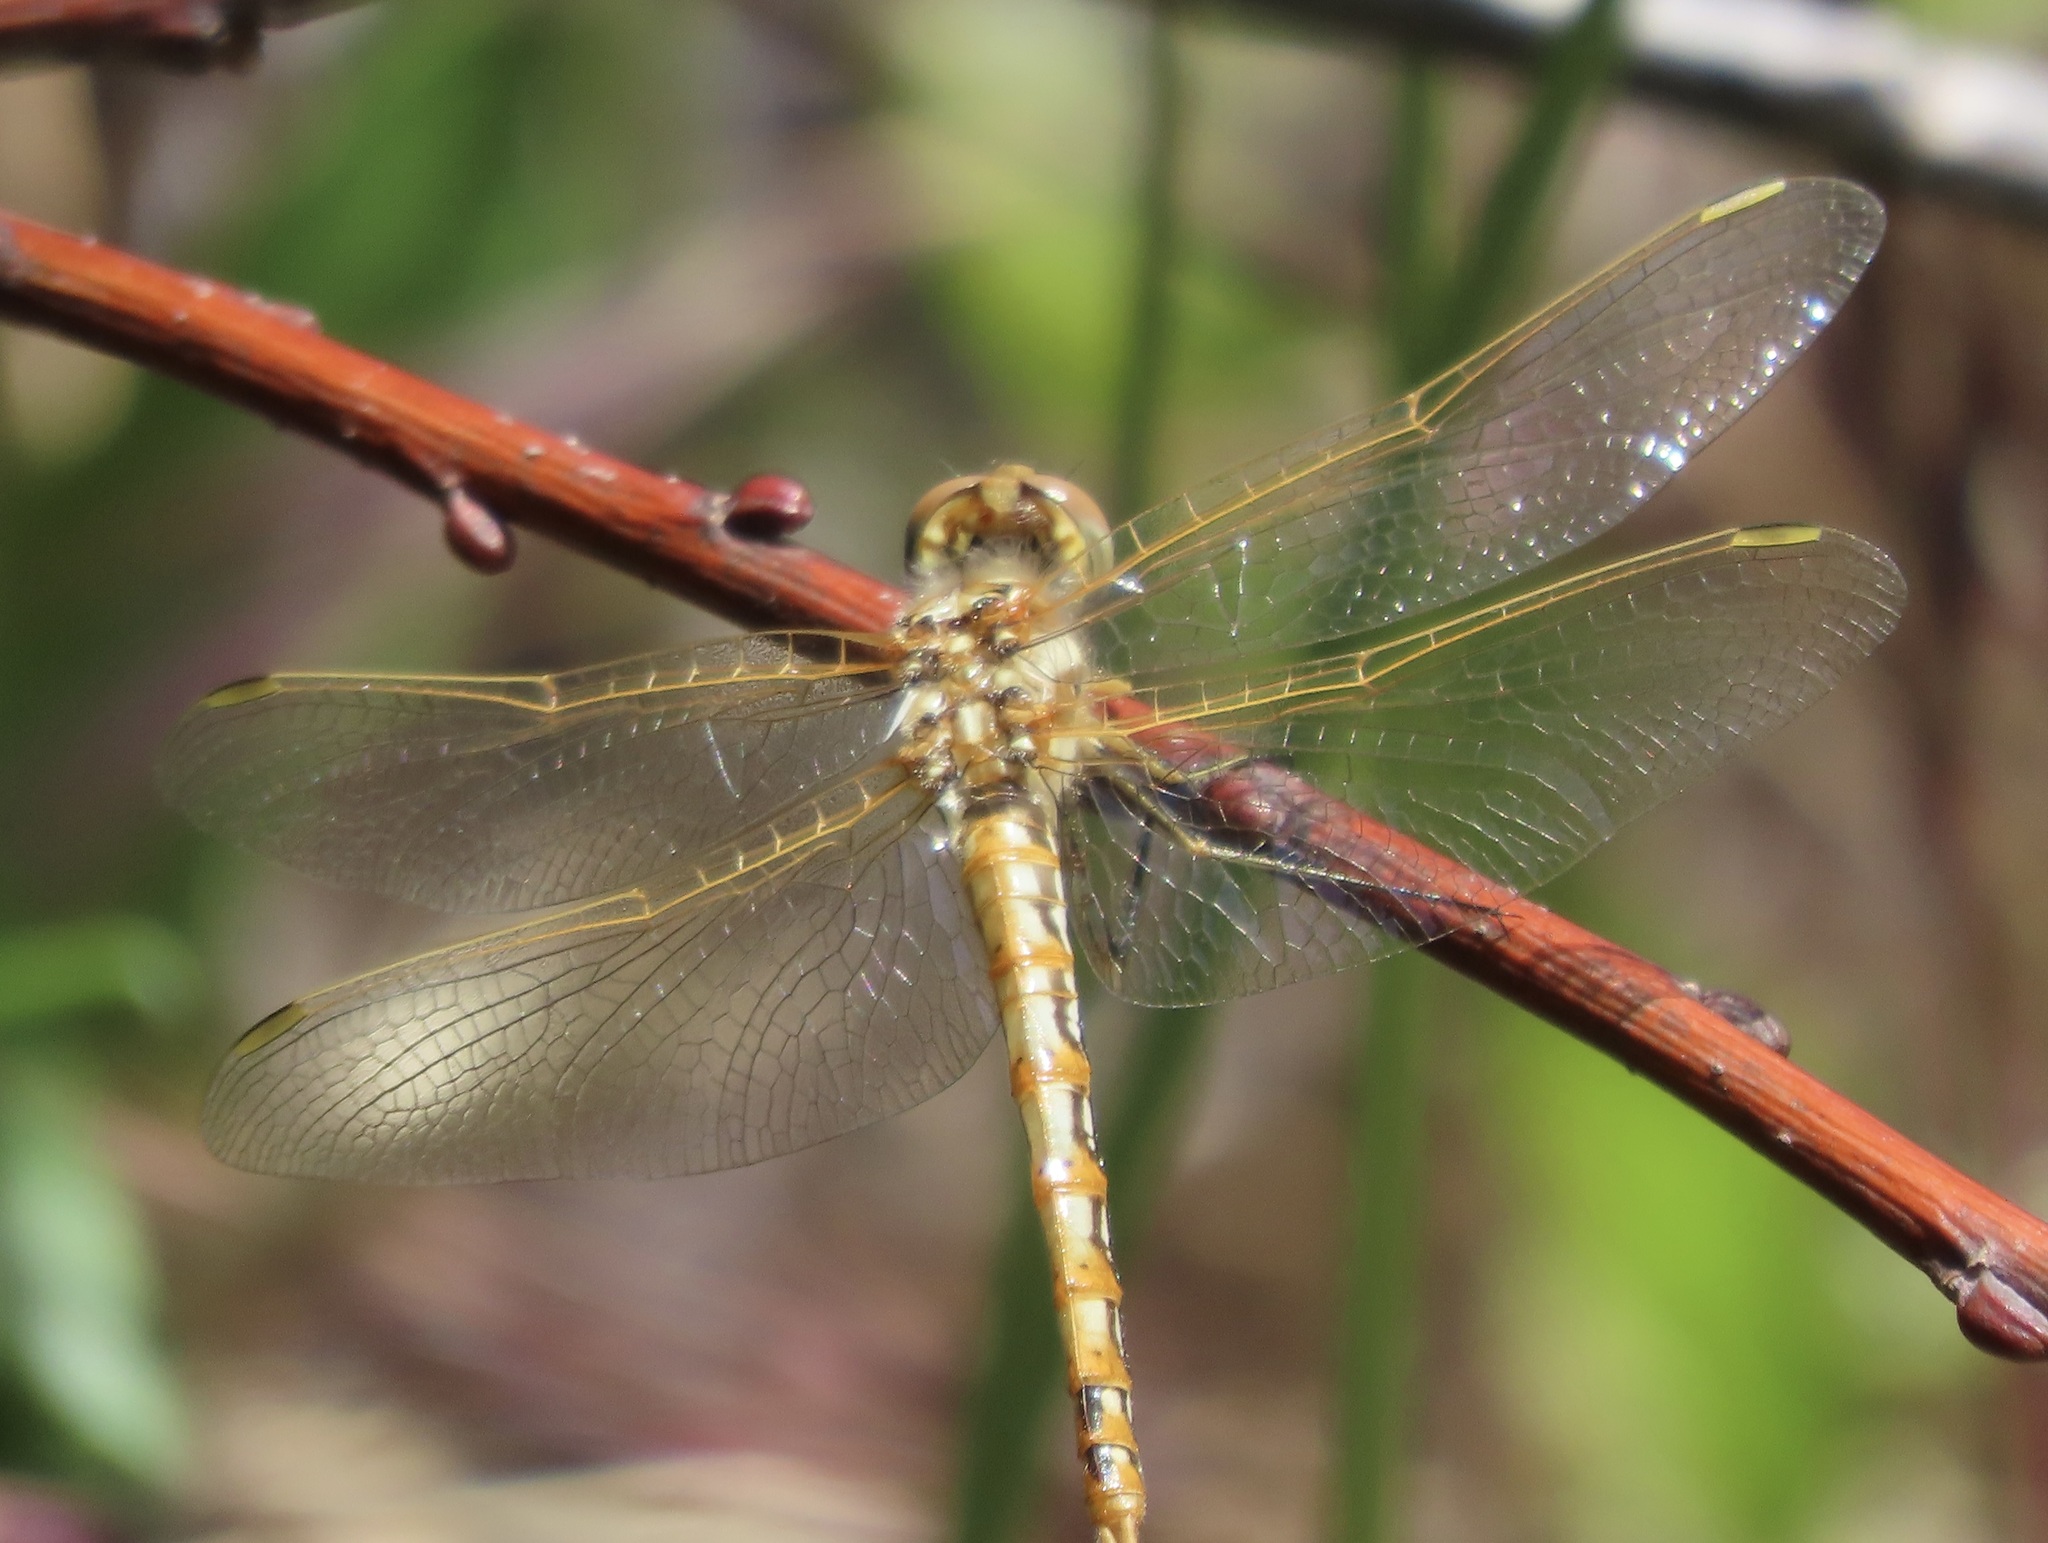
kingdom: Animalia
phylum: Arthropoda
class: Insecta
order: Odonata
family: Libellulidae
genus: Sympetrum
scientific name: Sympetrum corruptum
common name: Variegated meadowhawk
